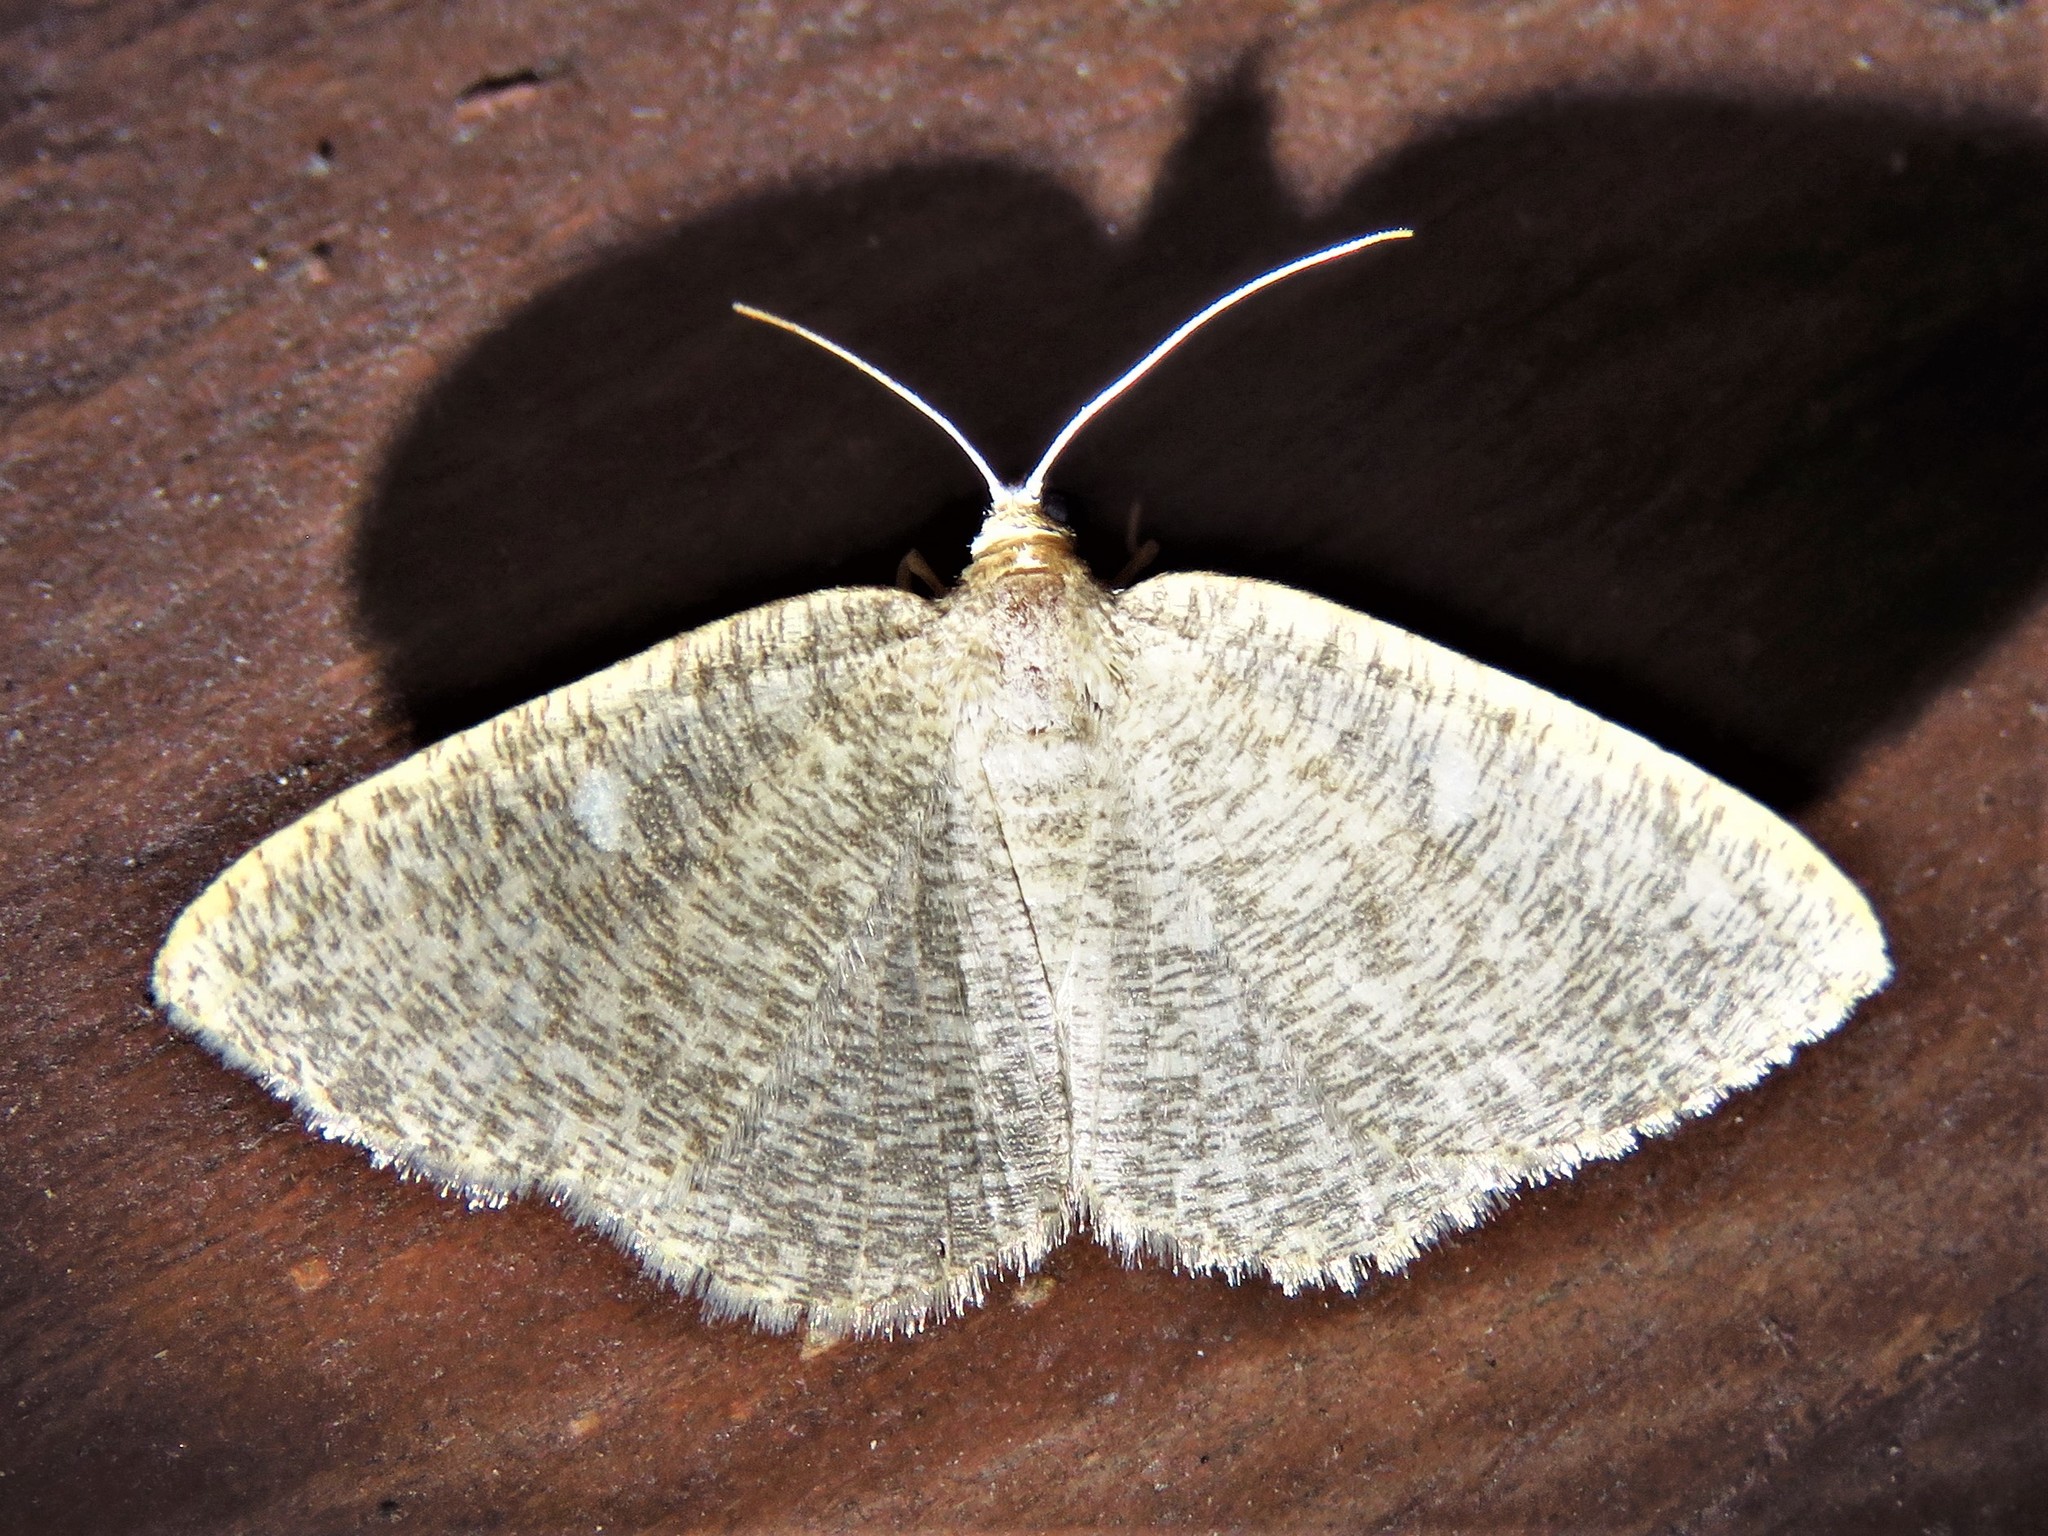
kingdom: Animalia
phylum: Arthropoda
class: Insecta
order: Lepidoptera
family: Geometridae
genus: Pterospoda
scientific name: Pterospoda kunzei
